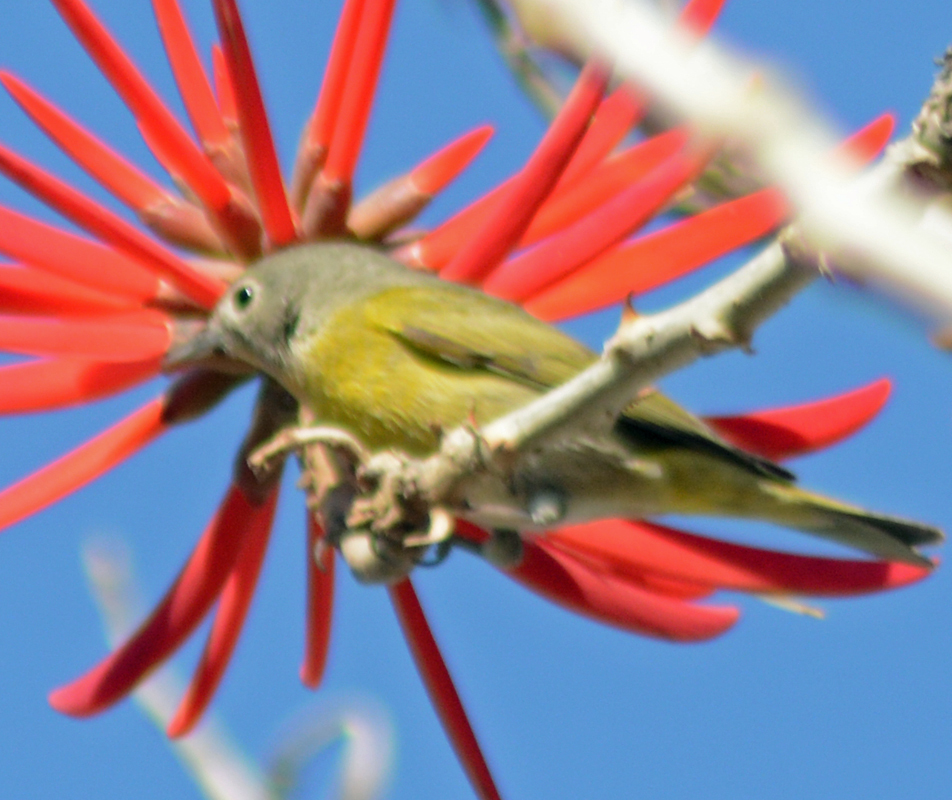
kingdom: Animalia
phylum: Chordata
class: Aves
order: Passeriformes
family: Parulidae
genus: Leiothlypis
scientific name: Leiothlypis ruficapilla
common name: Nashville warbler
